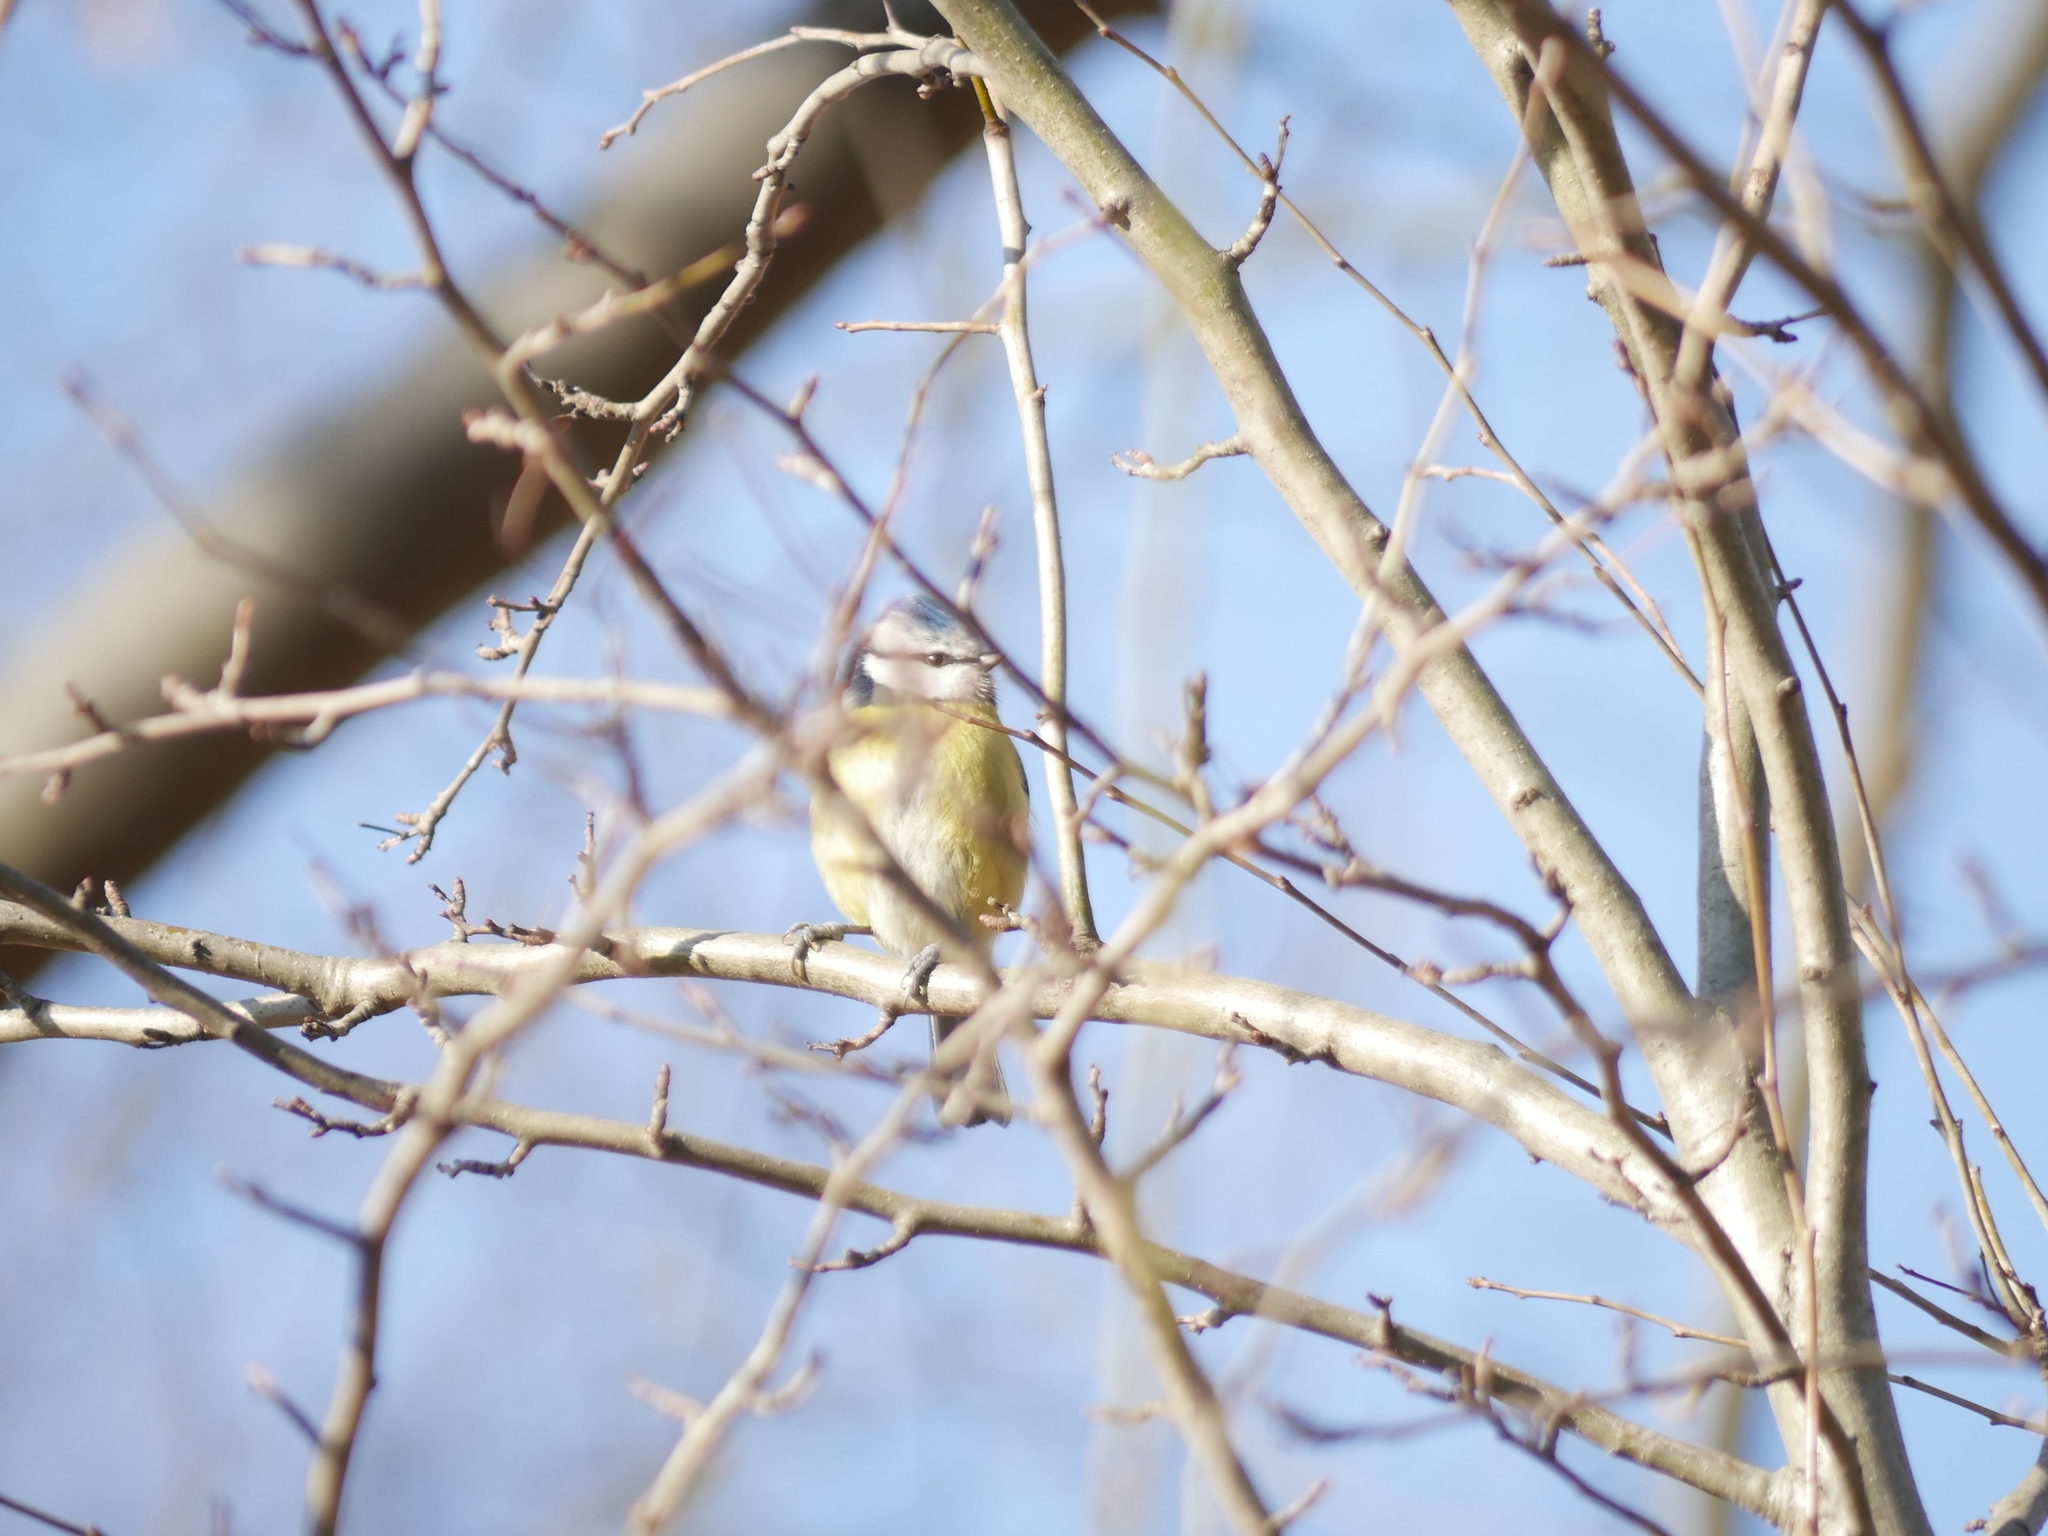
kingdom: Animalia
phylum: Chordata
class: Aves
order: Passeriformes
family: Paridae
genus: Cyanistes
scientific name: Cyanistes caeruleus
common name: Eurasian blue tit
